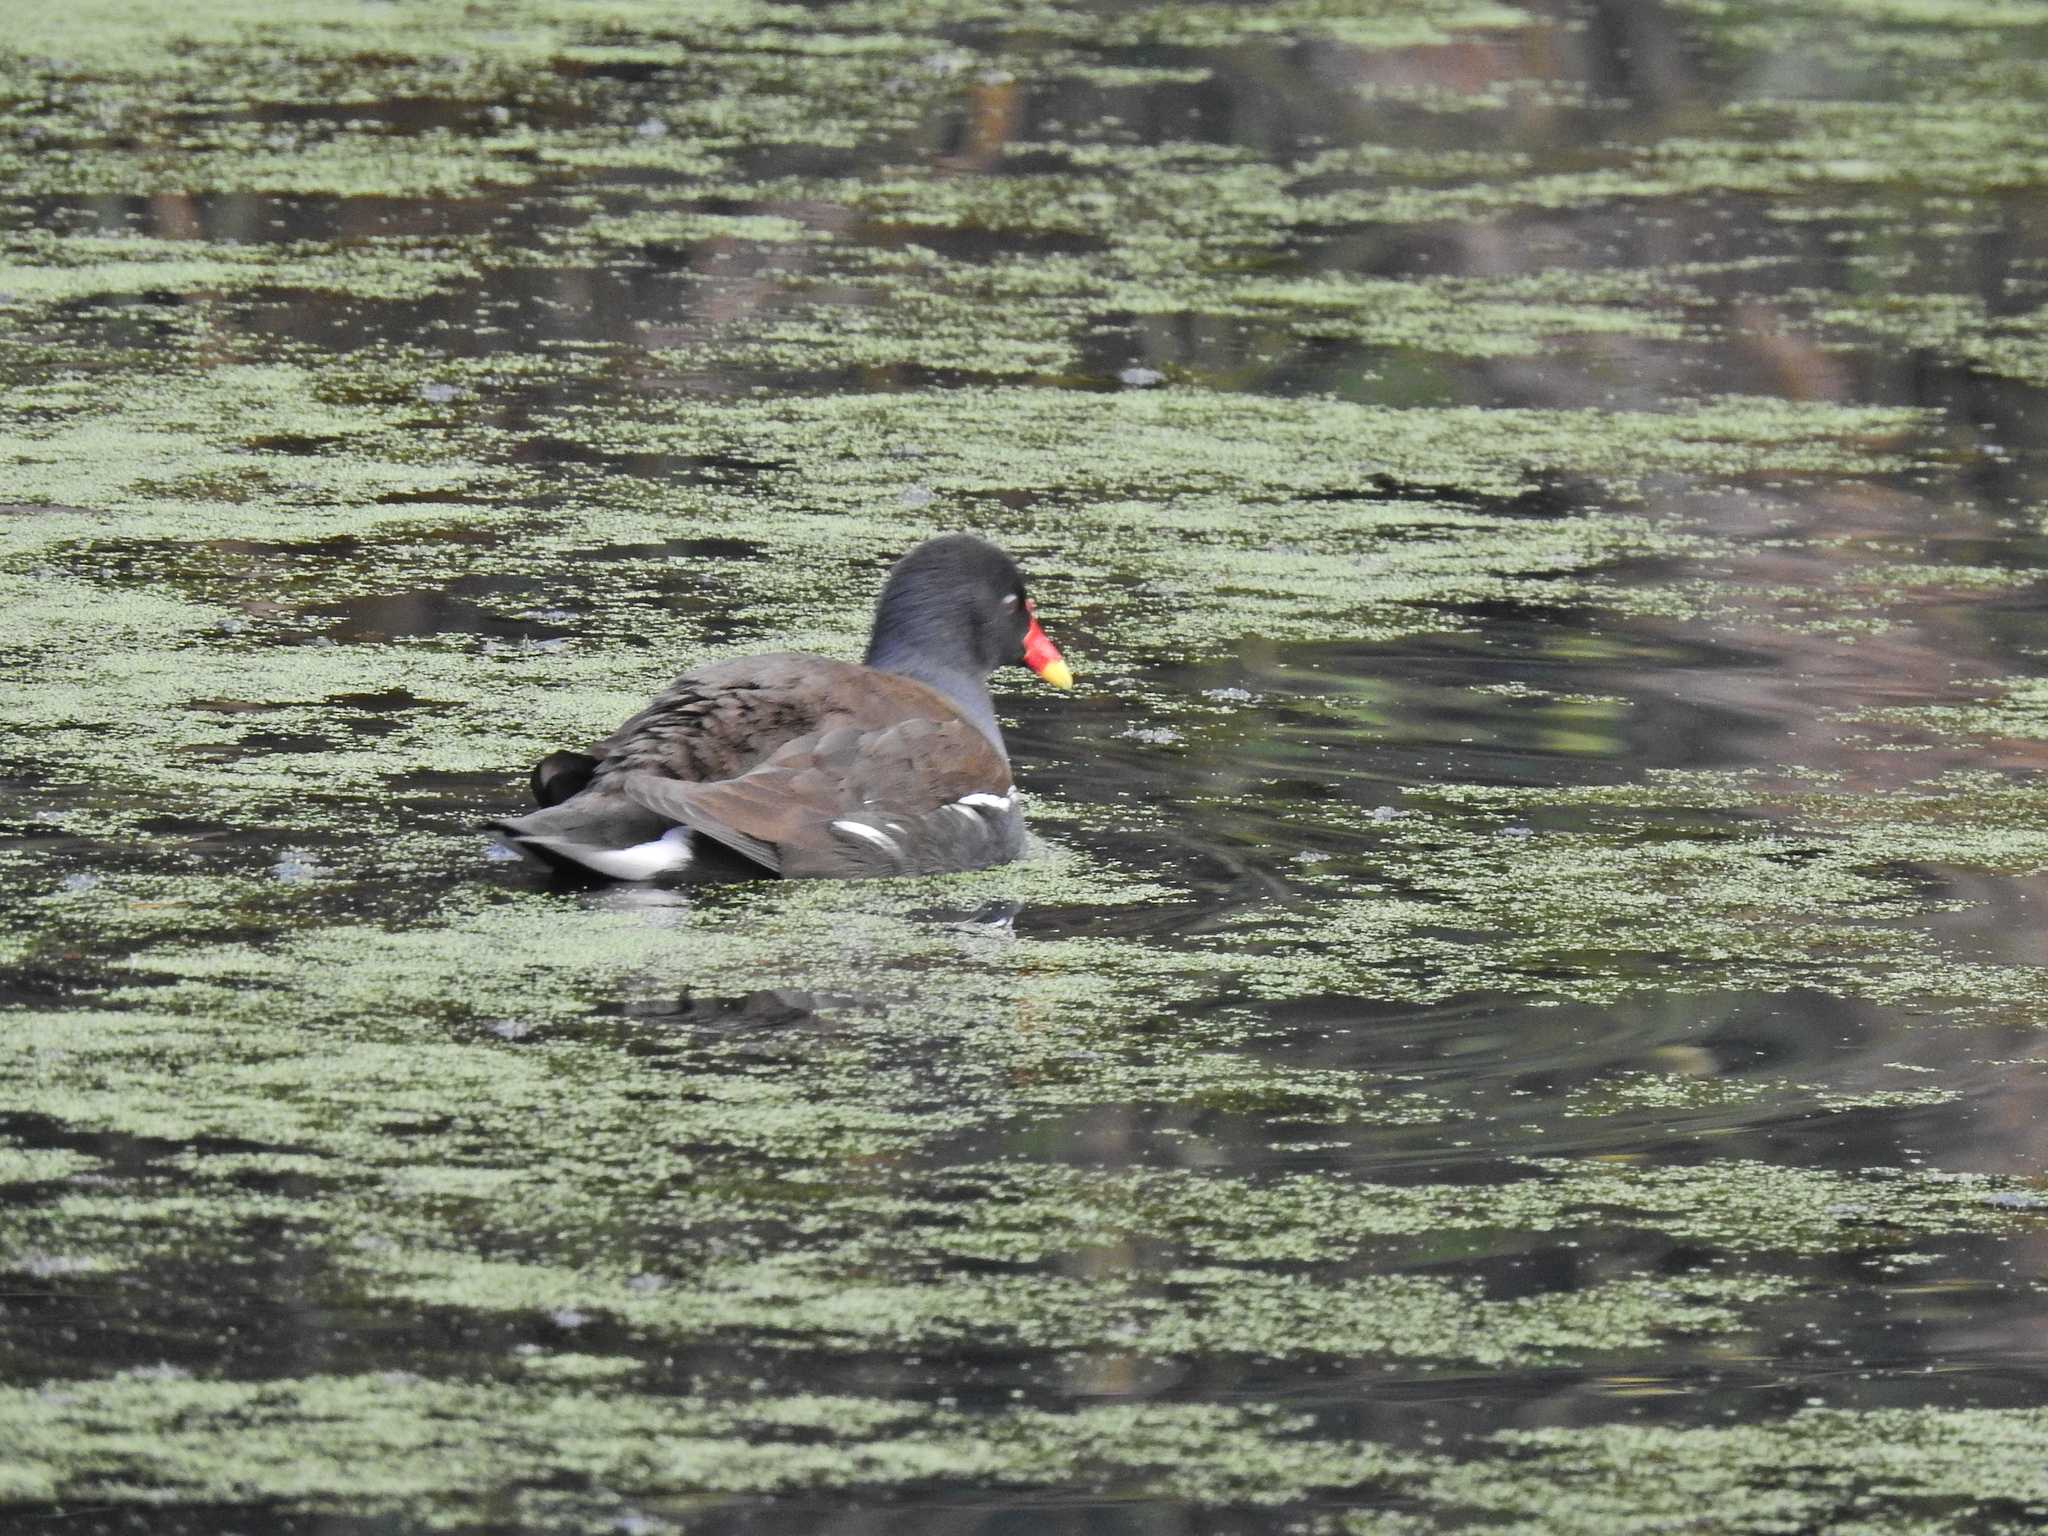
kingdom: Animalia
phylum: Chordata
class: Aves
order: Gruiformes
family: Rallidae
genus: Gallinula
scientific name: Gallinula chloropus
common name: Common moorhen
